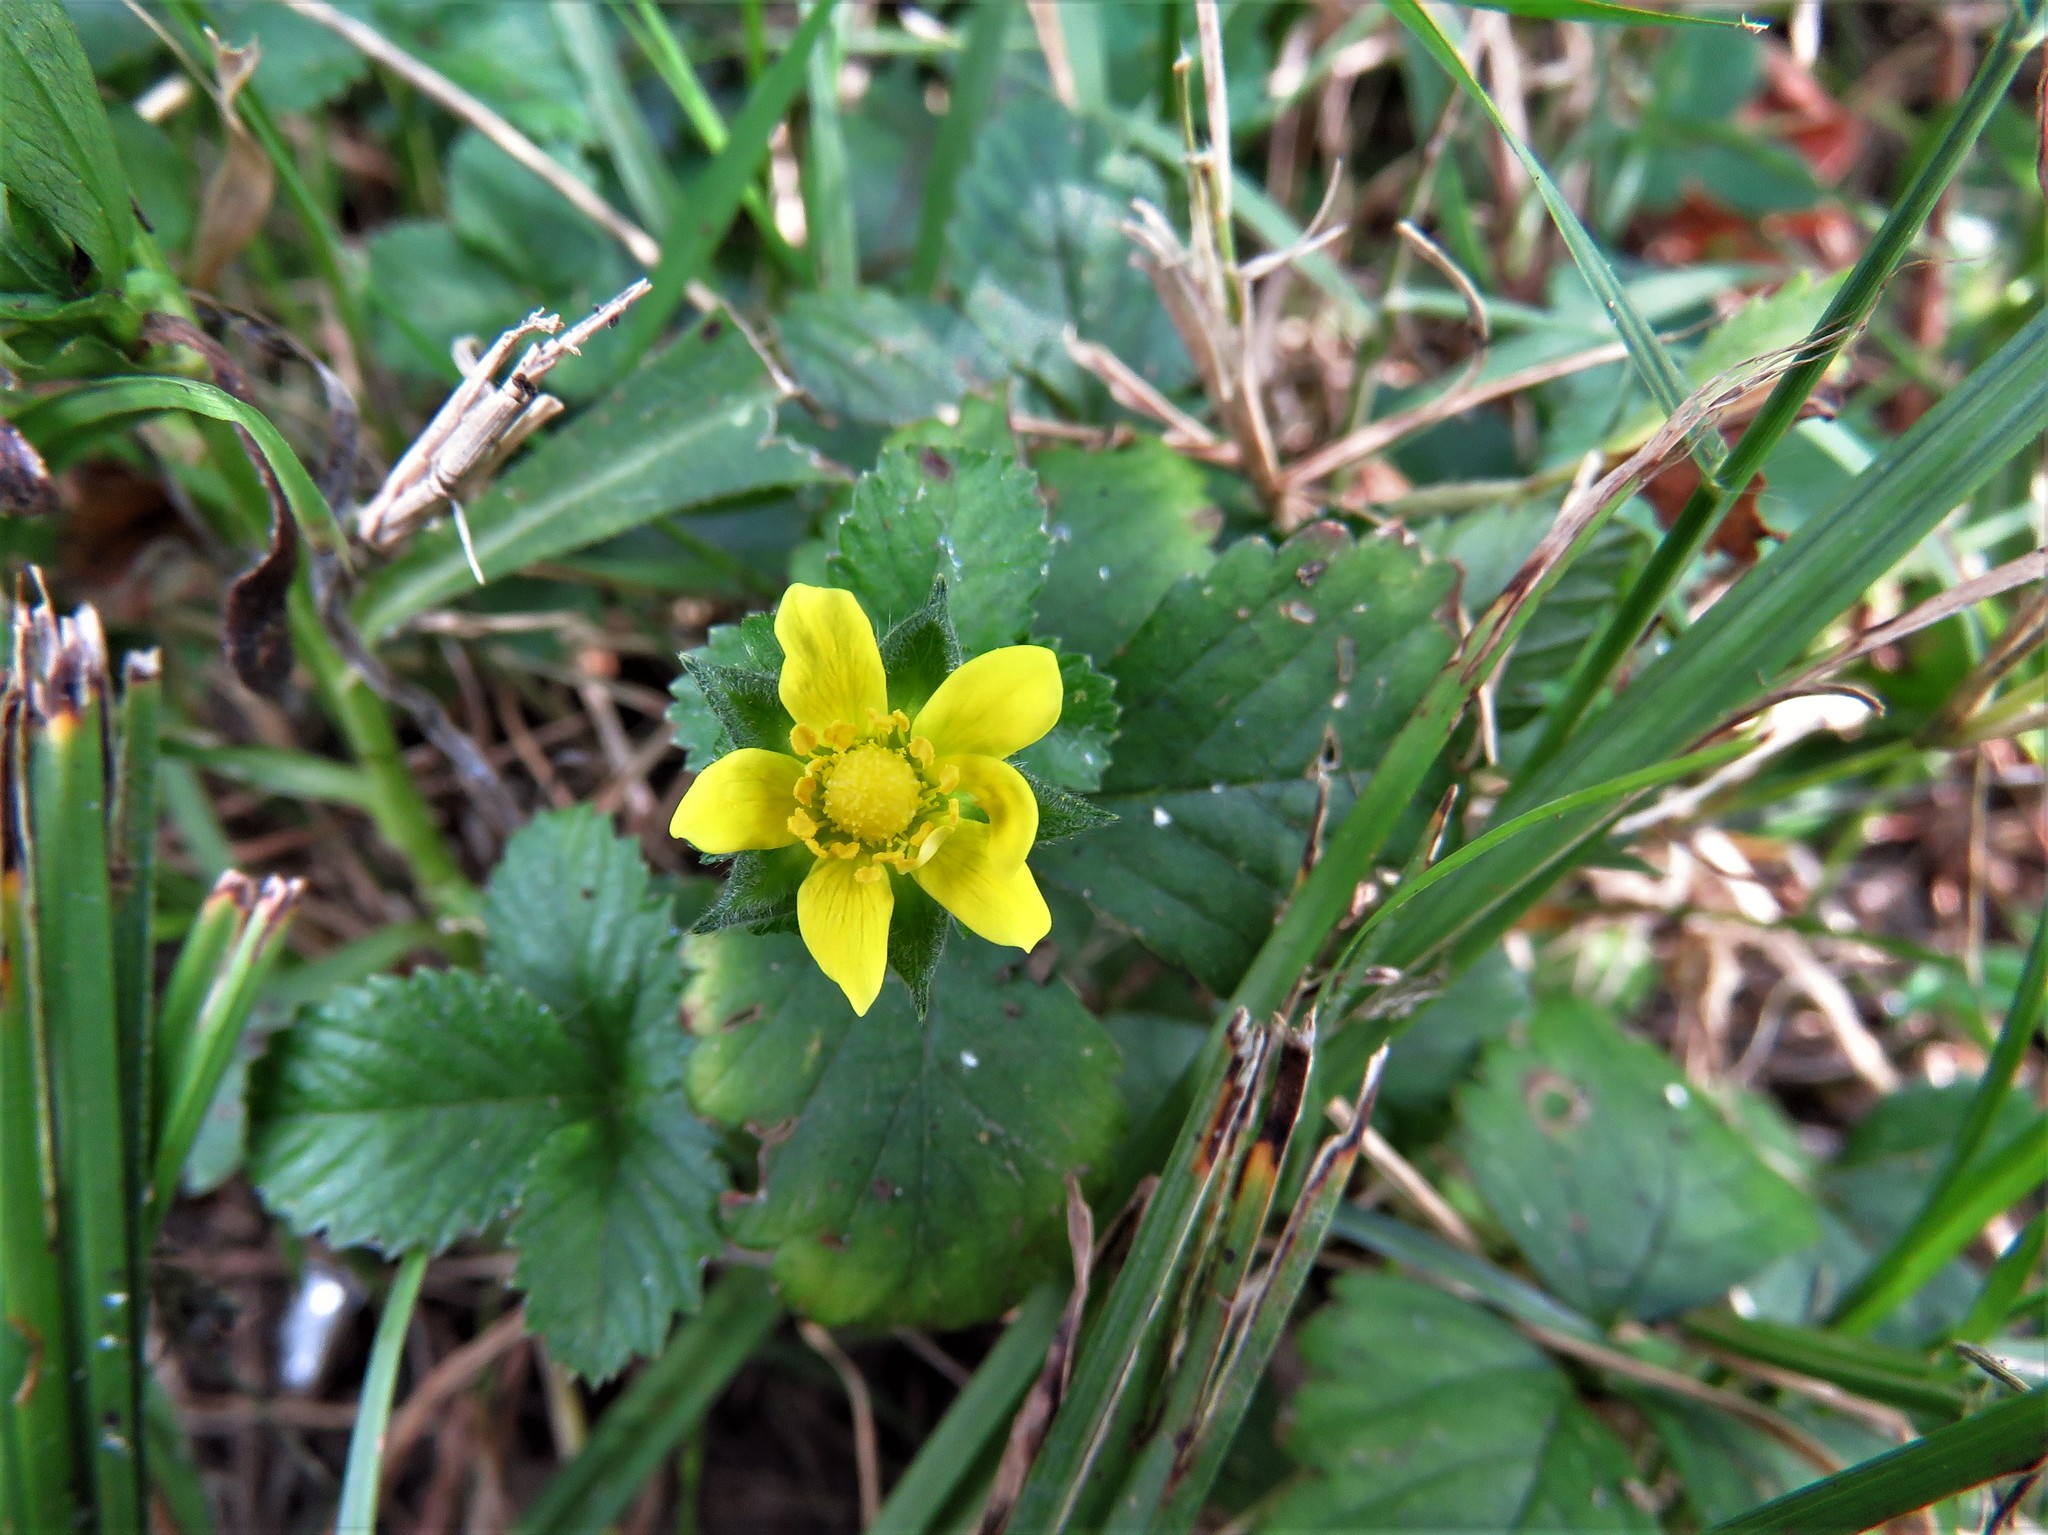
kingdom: Plantae
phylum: Tracheophyta
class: Magnoliopsida
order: Rosales
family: Rosaceae
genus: Potentilla
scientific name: Potentilla indica
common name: Yellow-flowered strawberry
